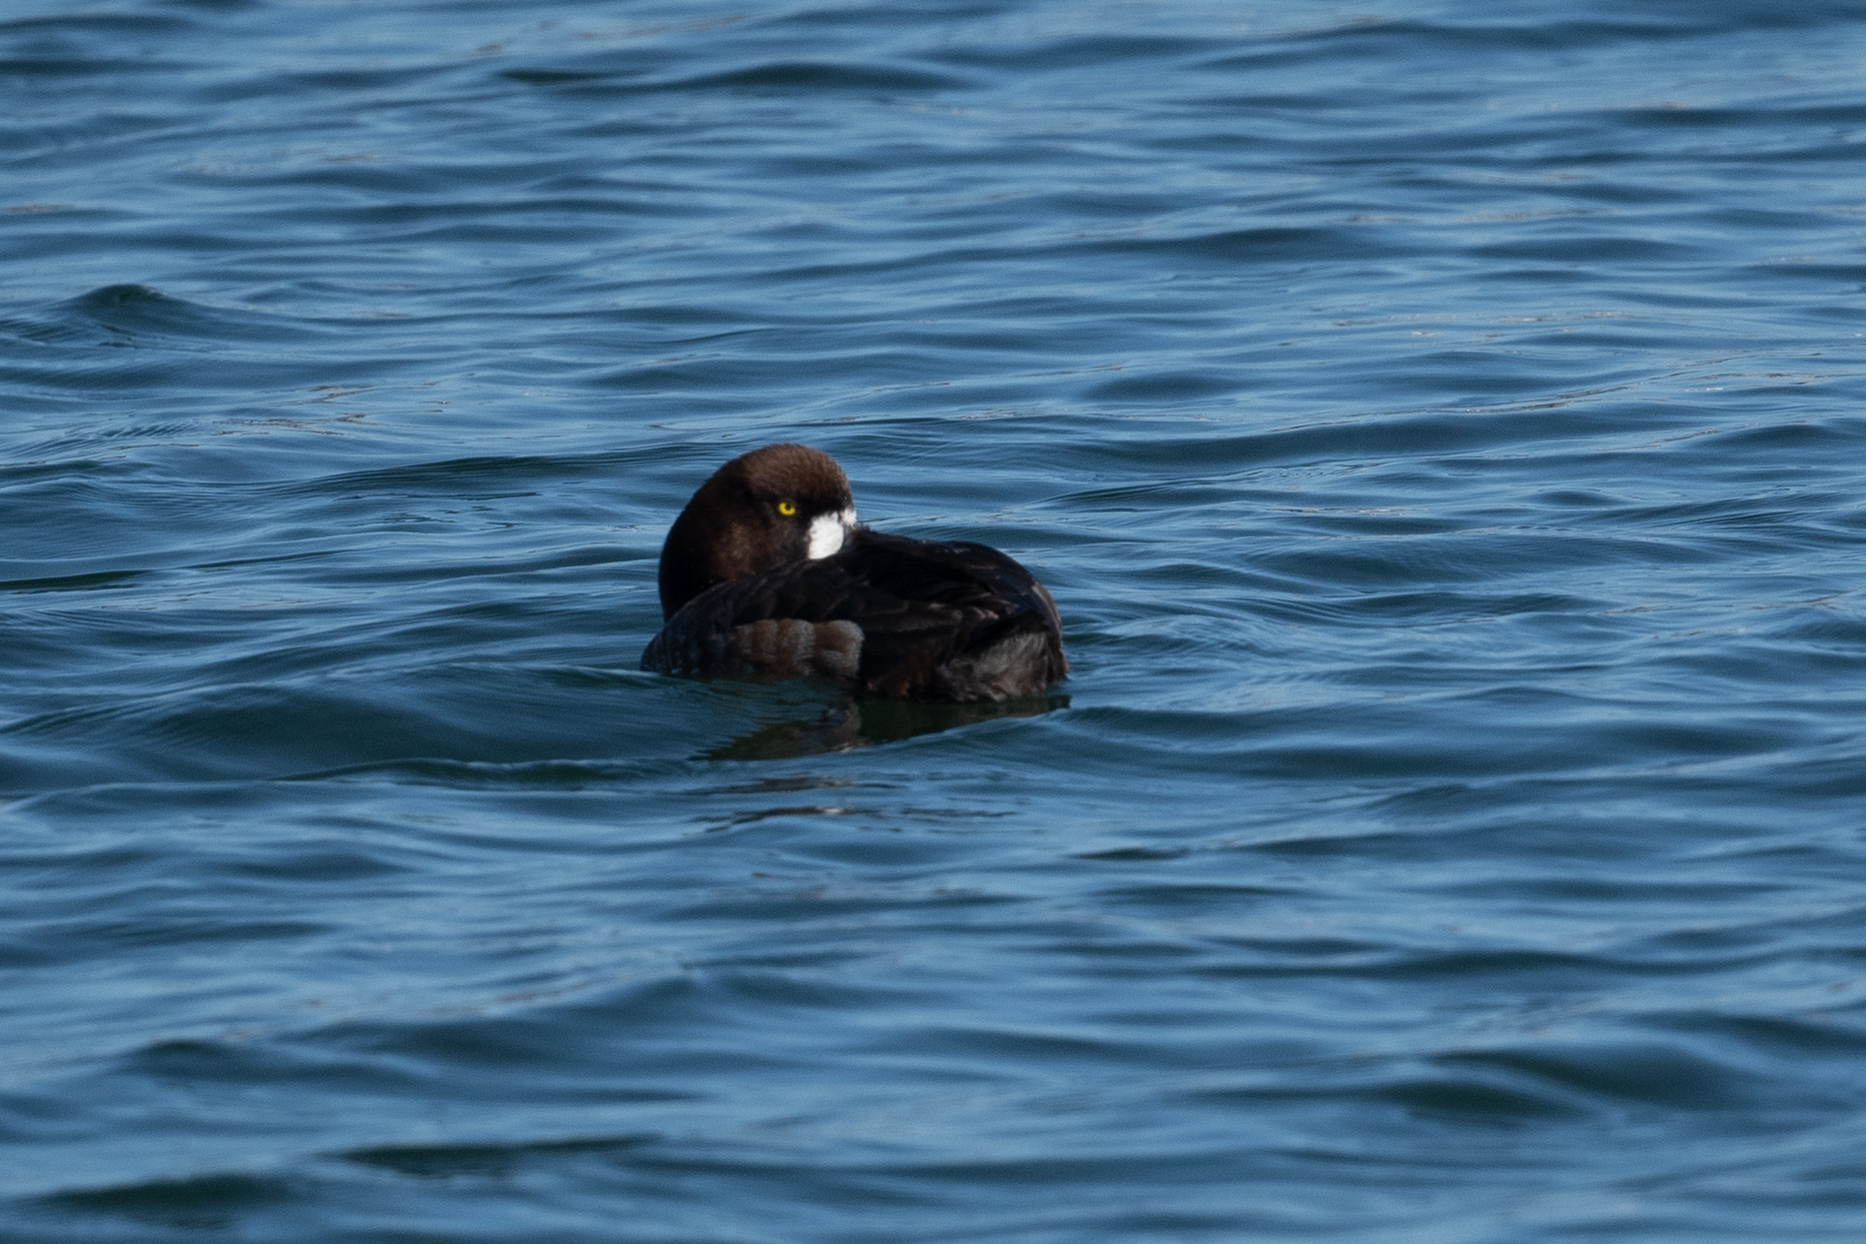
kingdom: Animalia
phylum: Chordata
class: Aves
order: Anseriformes
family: Anatidae
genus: Aythya
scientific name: Aythya marila
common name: Greater scaup
